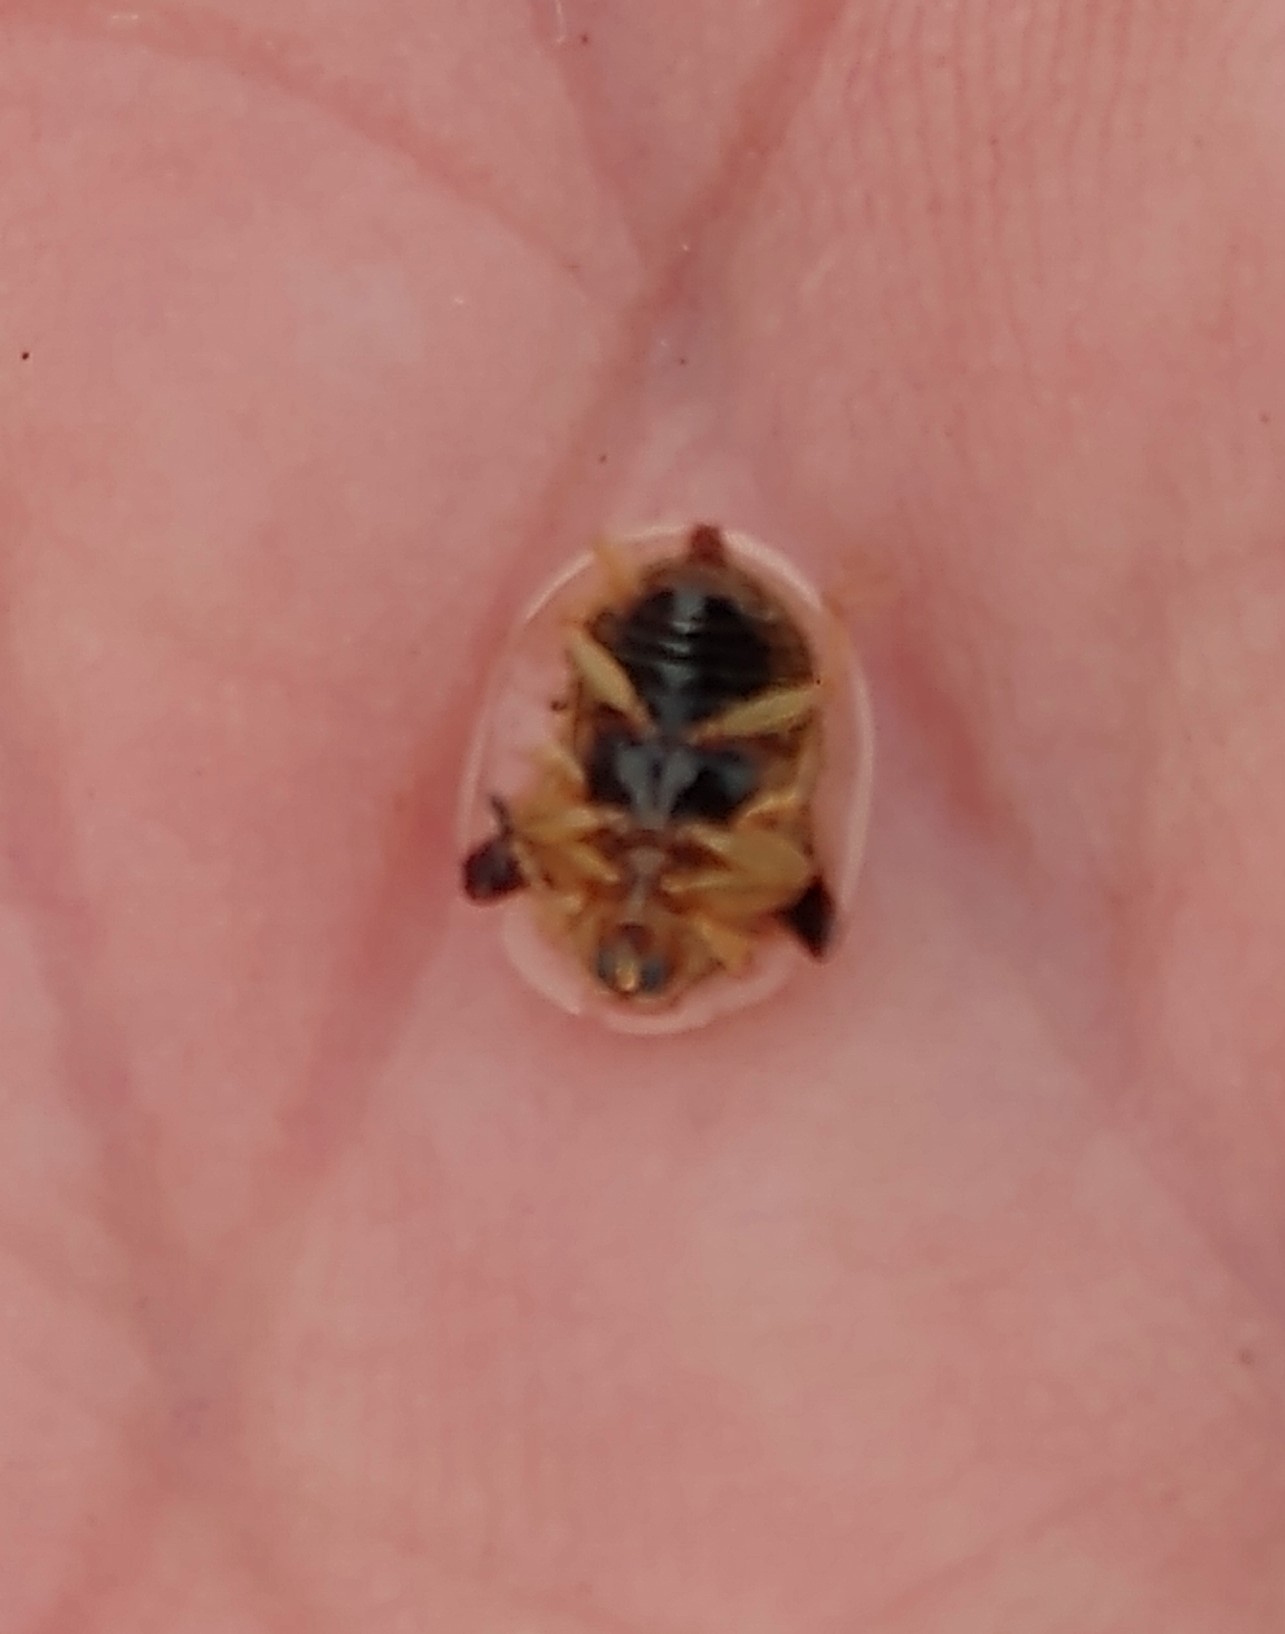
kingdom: Animalia
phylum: Arthropoda
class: Insecta
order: Coleoptera
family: Chrysomelidae
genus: Deloyala
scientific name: Deloyala guttata
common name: Mottled tortoise beetle
